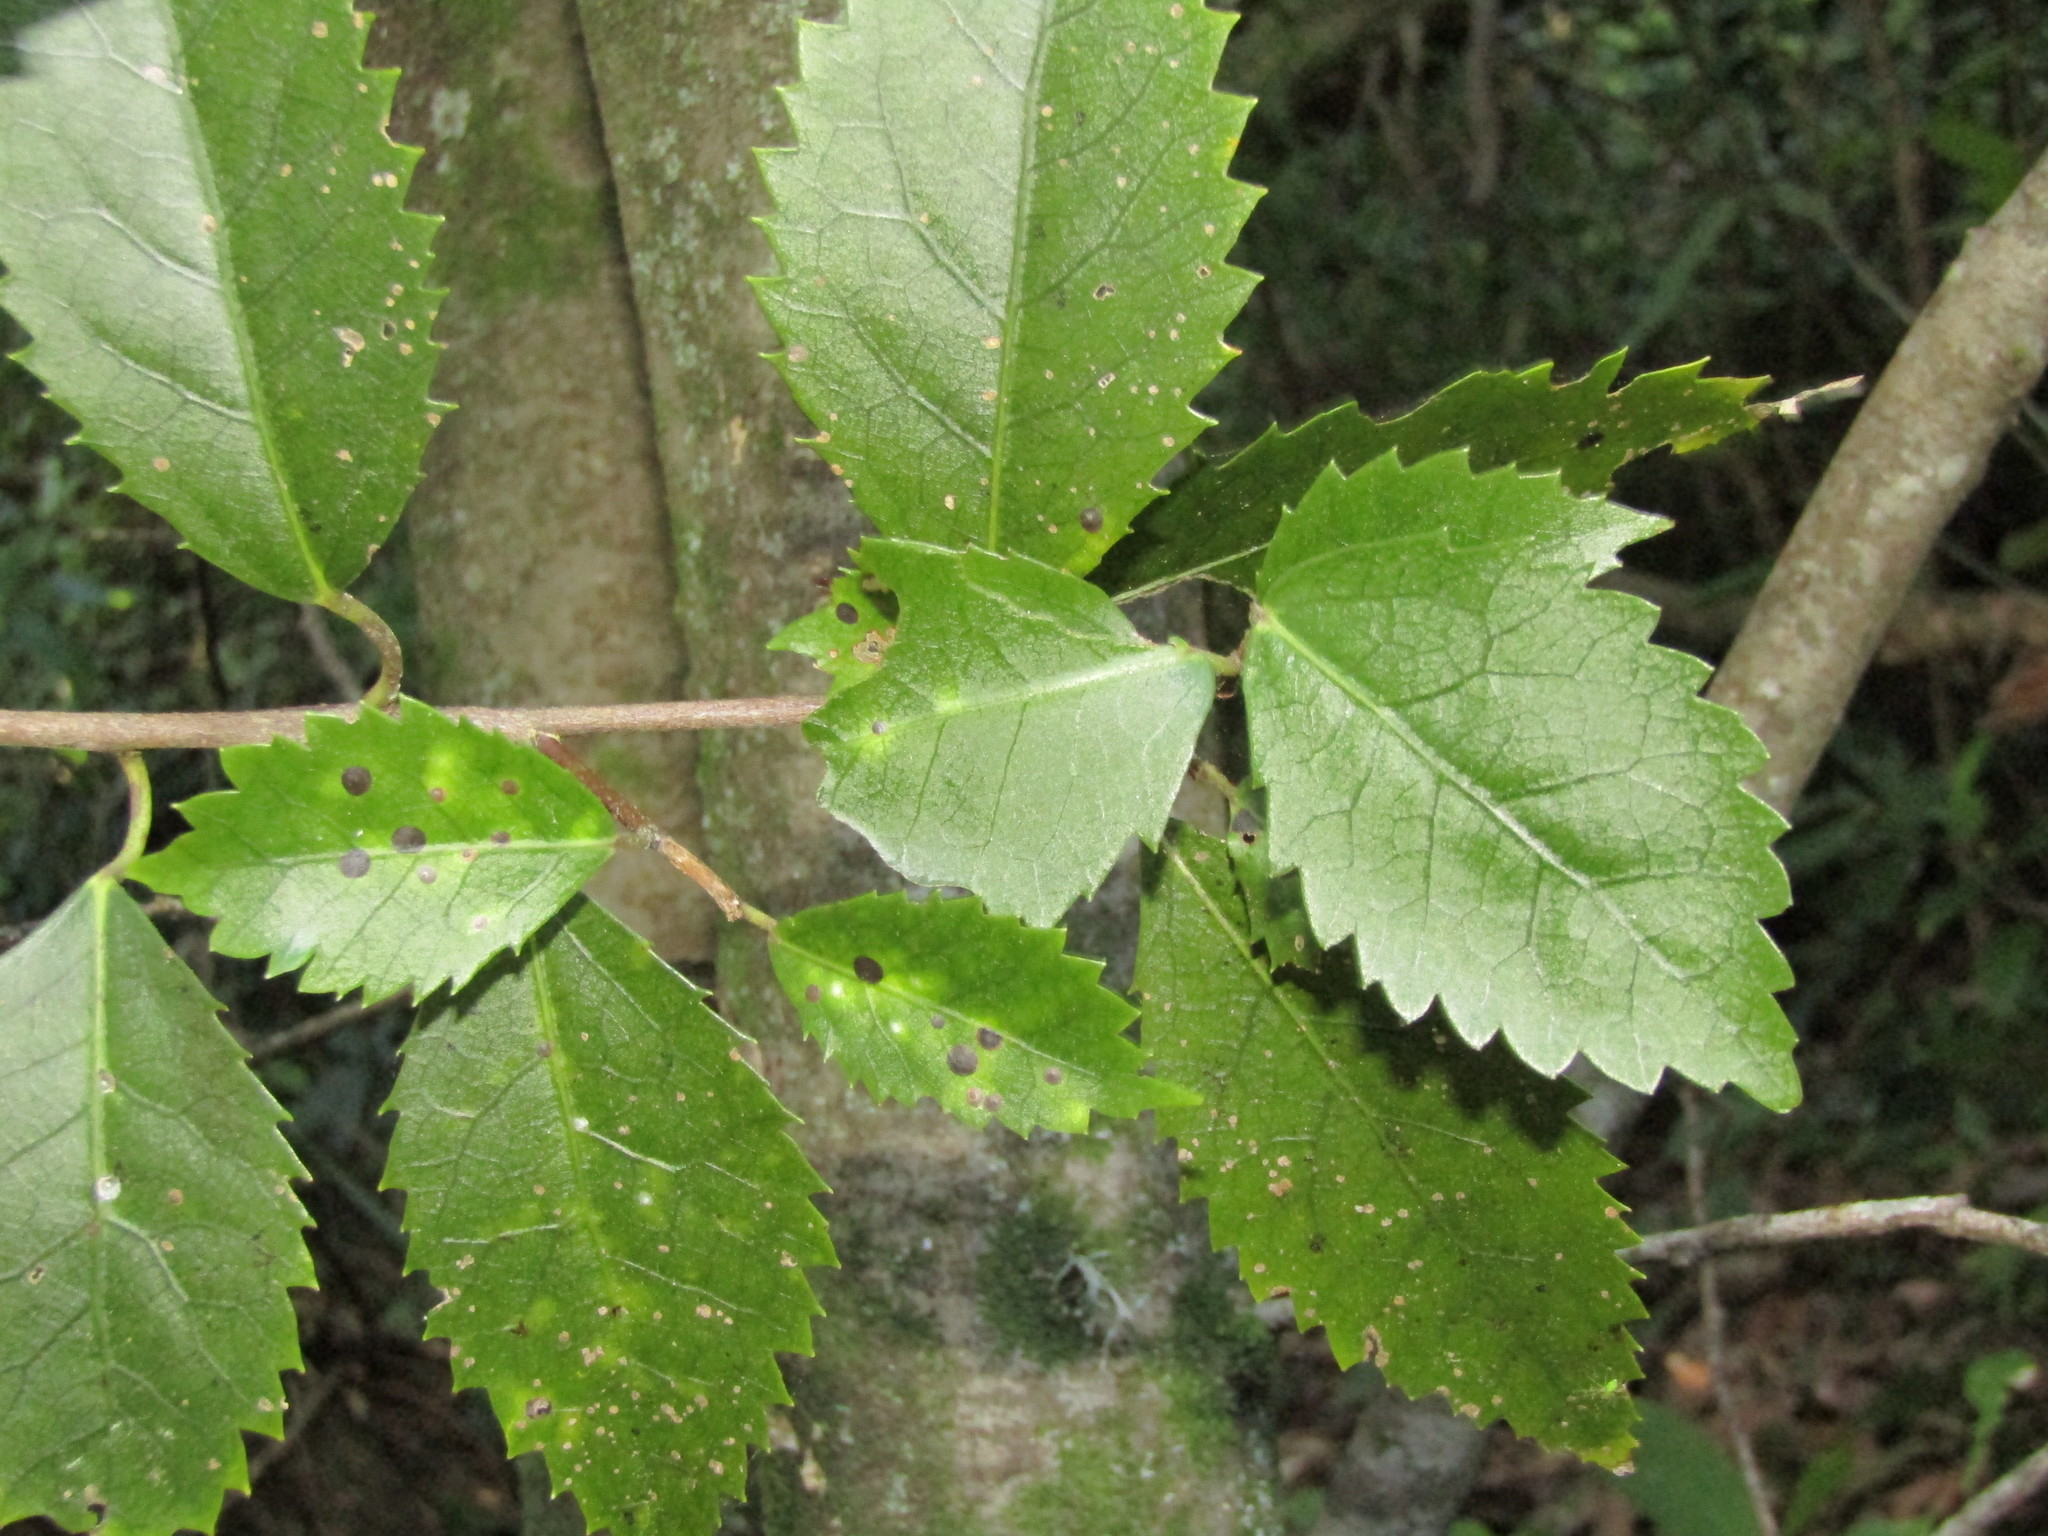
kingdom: Plantae
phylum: Tracheophyta
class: Magnoliopsida
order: Malvales
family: Malvaceae
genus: Hoheria
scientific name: Hoheria populnea
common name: Lacebark
